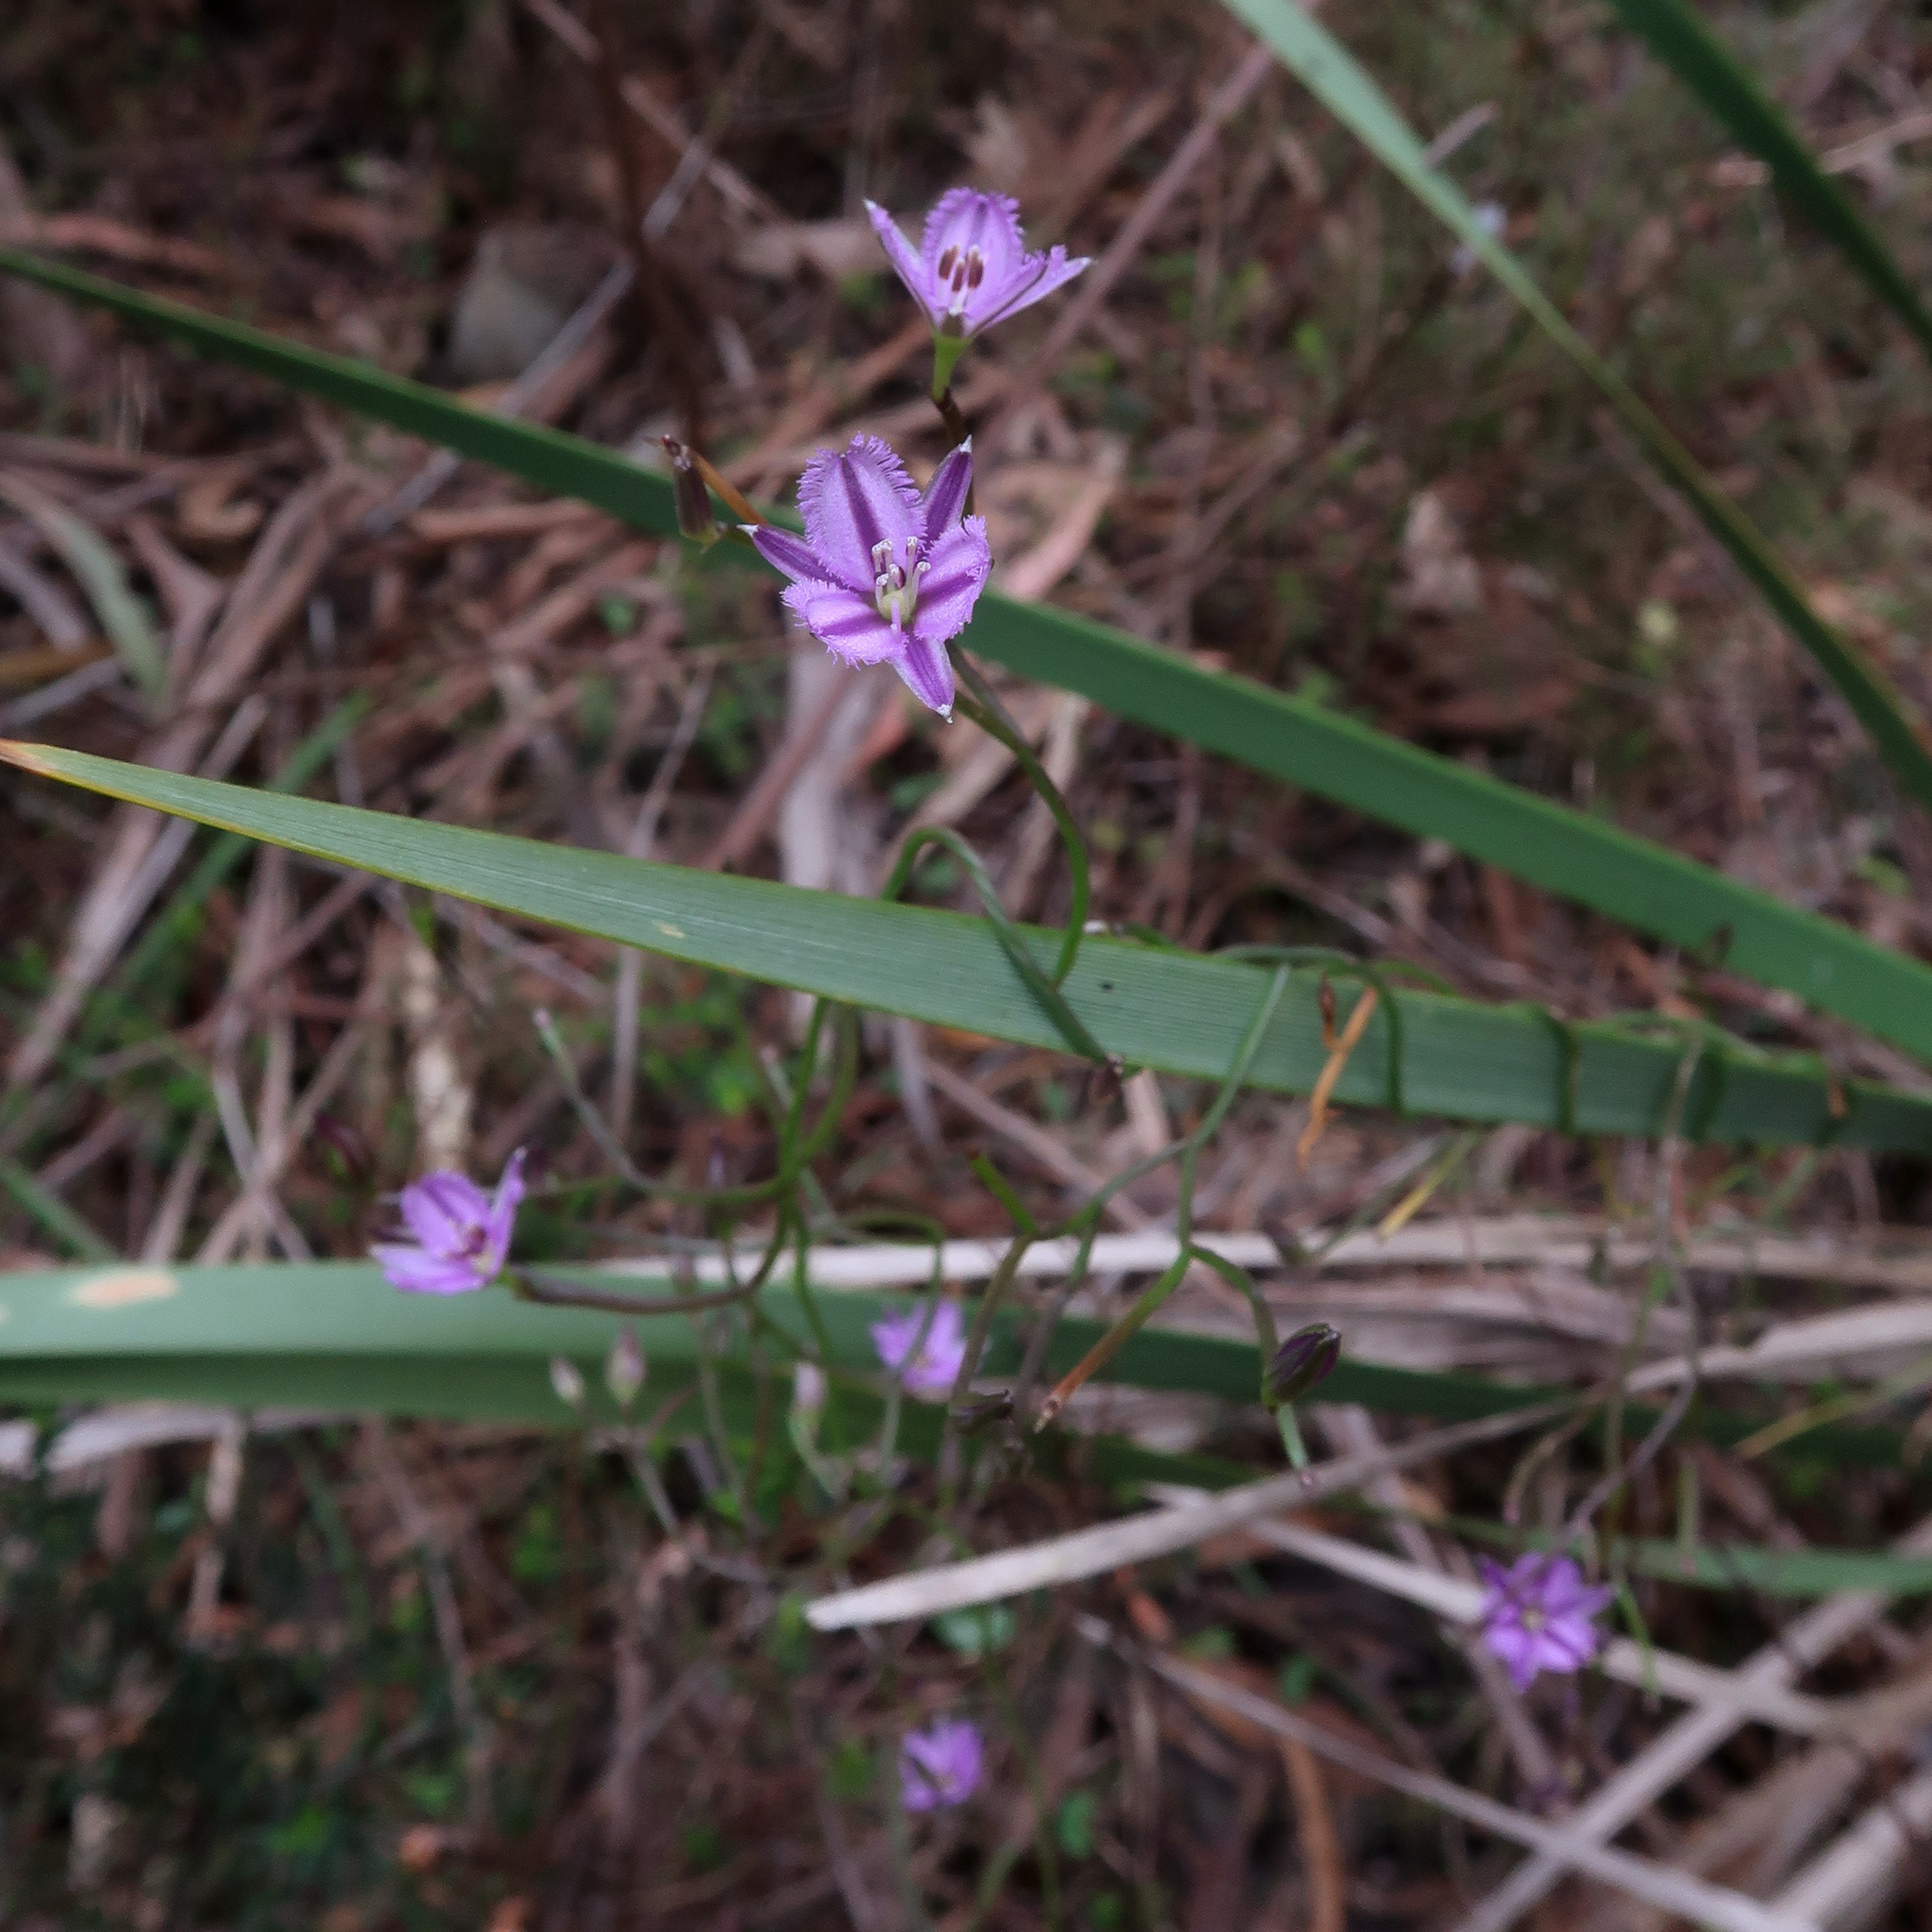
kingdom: Plantae
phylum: Tracheophyta
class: Liliopsida
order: Asparagales
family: Asparagaceae
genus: Thysanotus
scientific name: Thysanotus patersonii
